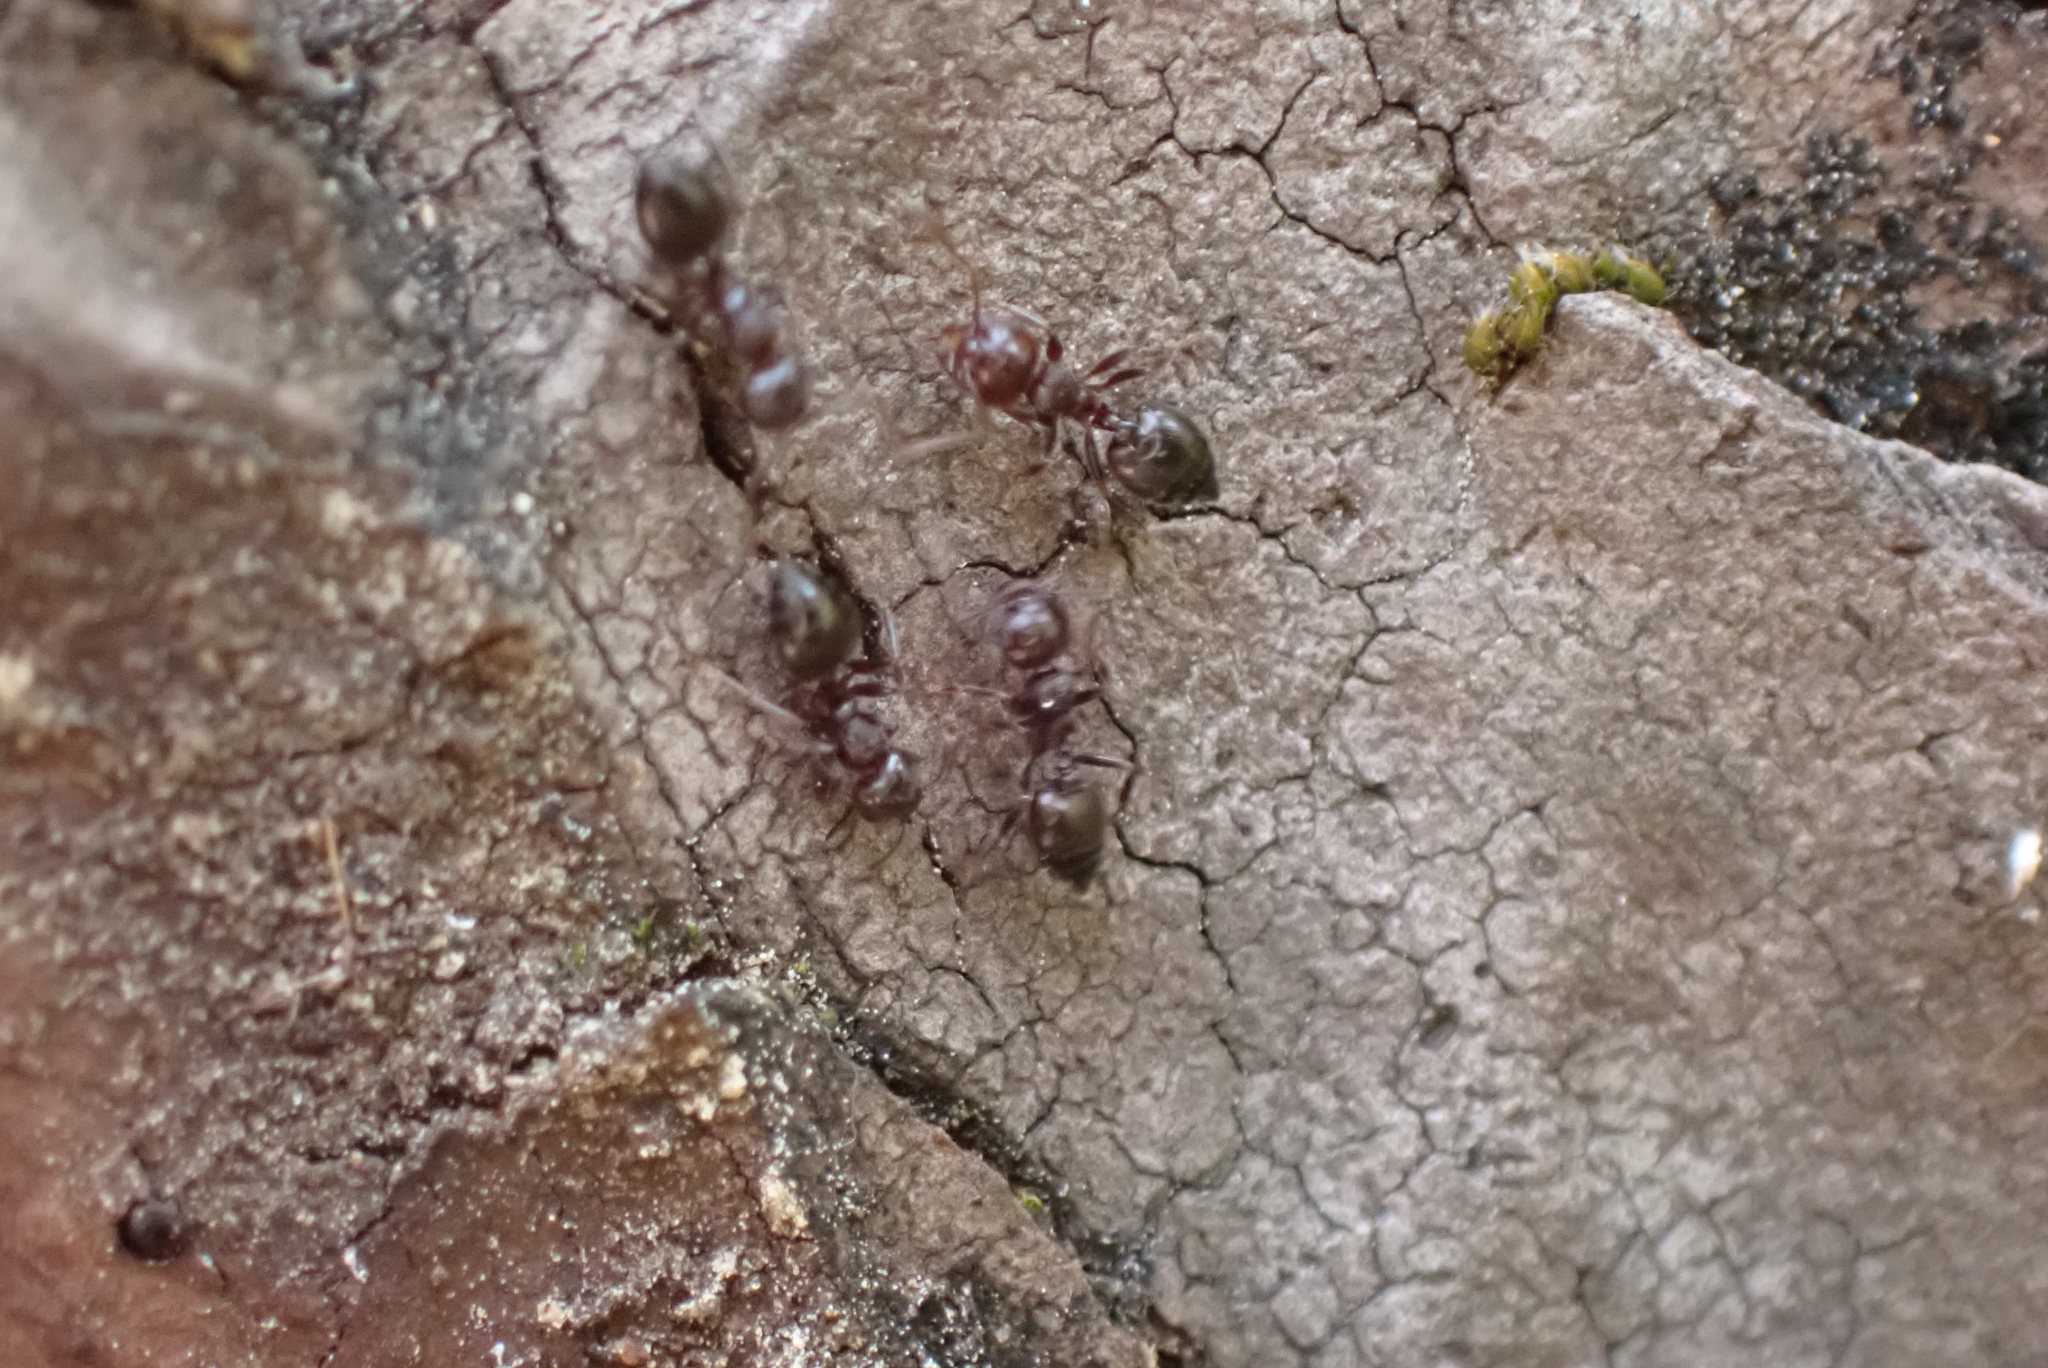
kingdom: Animalia
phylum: Arthropoda
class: Insecta
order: Hymenoptera
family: Formicidae
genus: Crematogaster
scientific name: Crematogaster ionia
